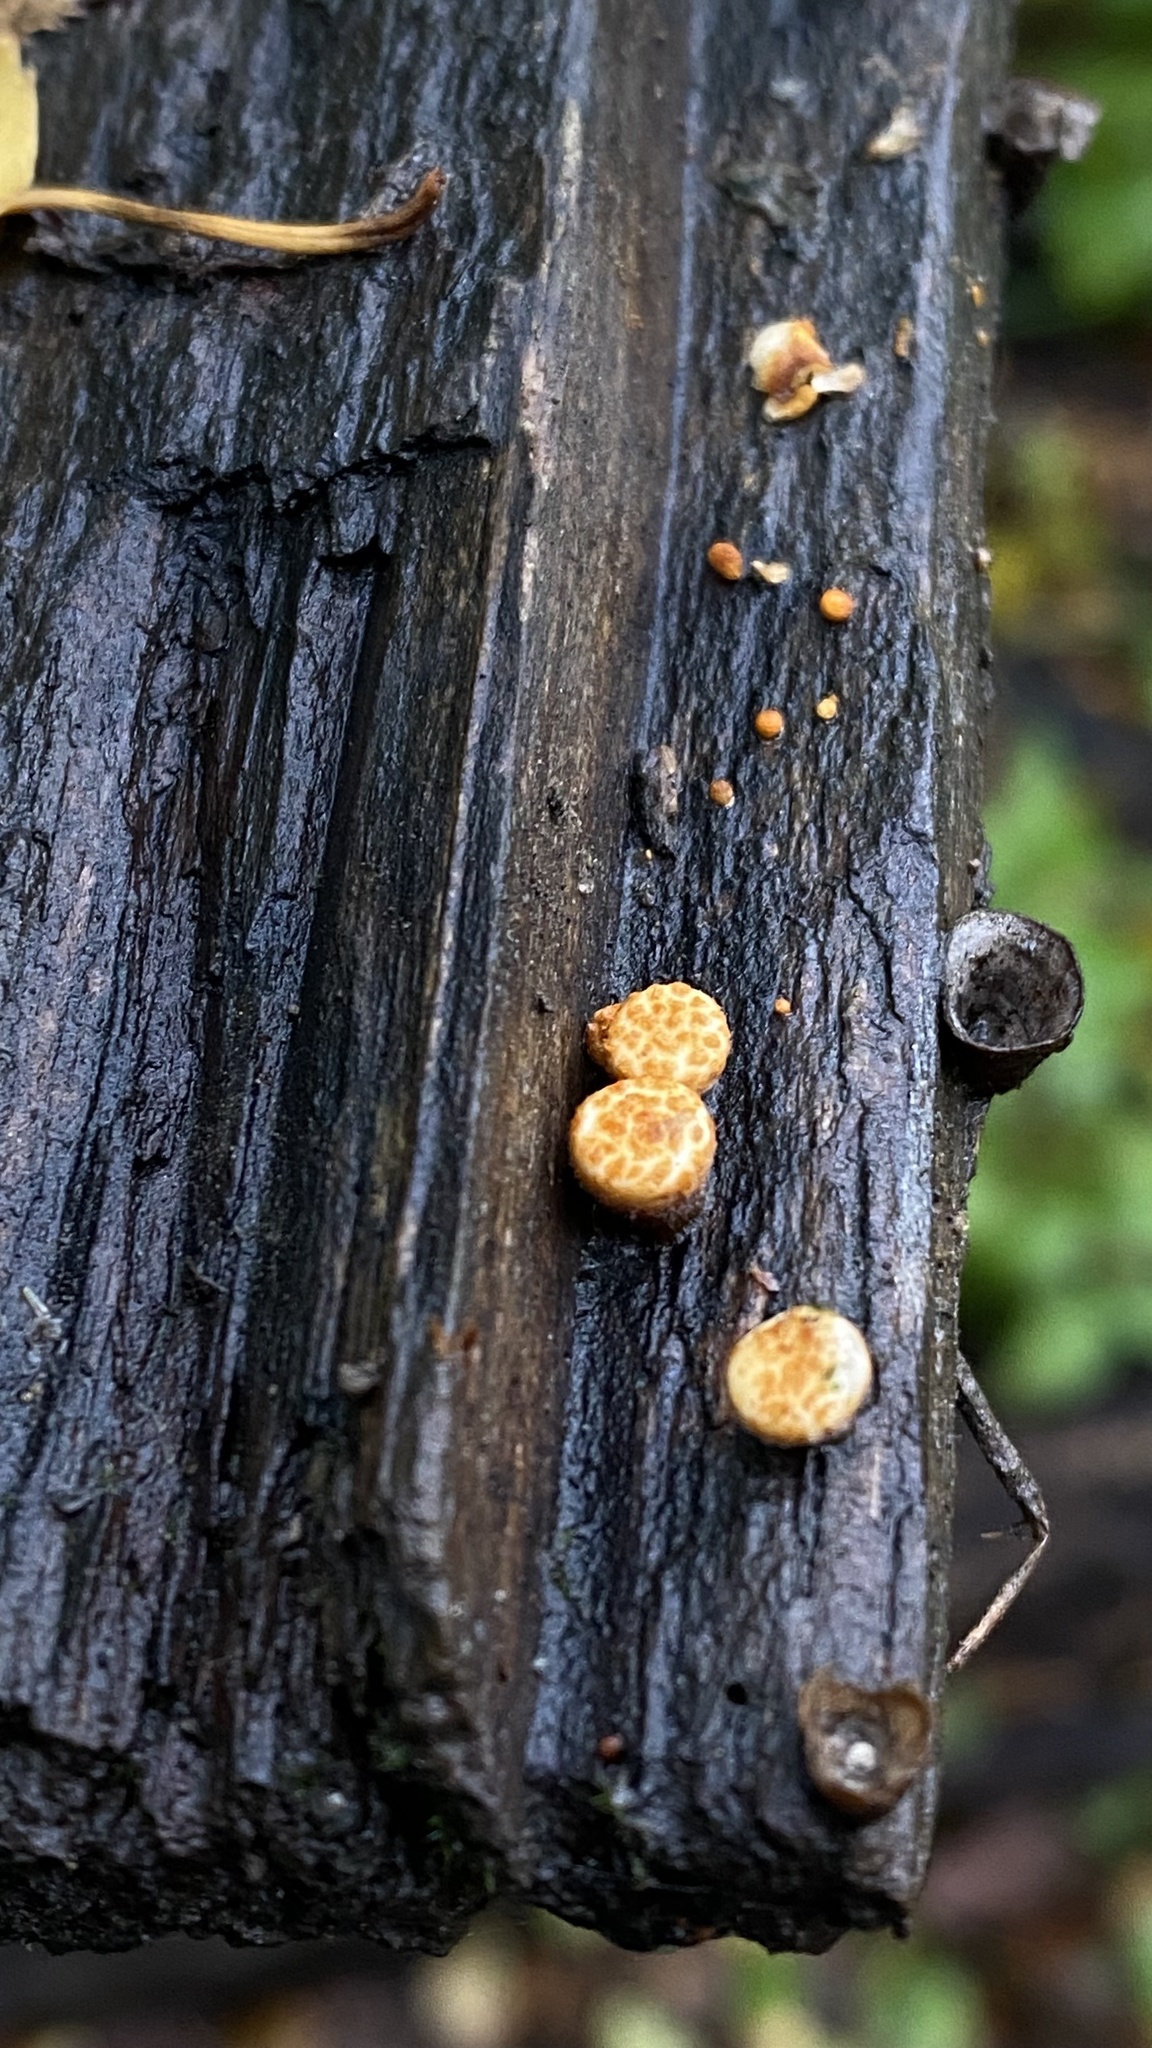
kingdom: Fungi
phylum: Basidiomycota
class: Agaricomycetes
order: Agaricales
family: Nidulariaceae
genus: Crucibulum
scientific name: Crucibulum laeve
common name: Common bird's nest
